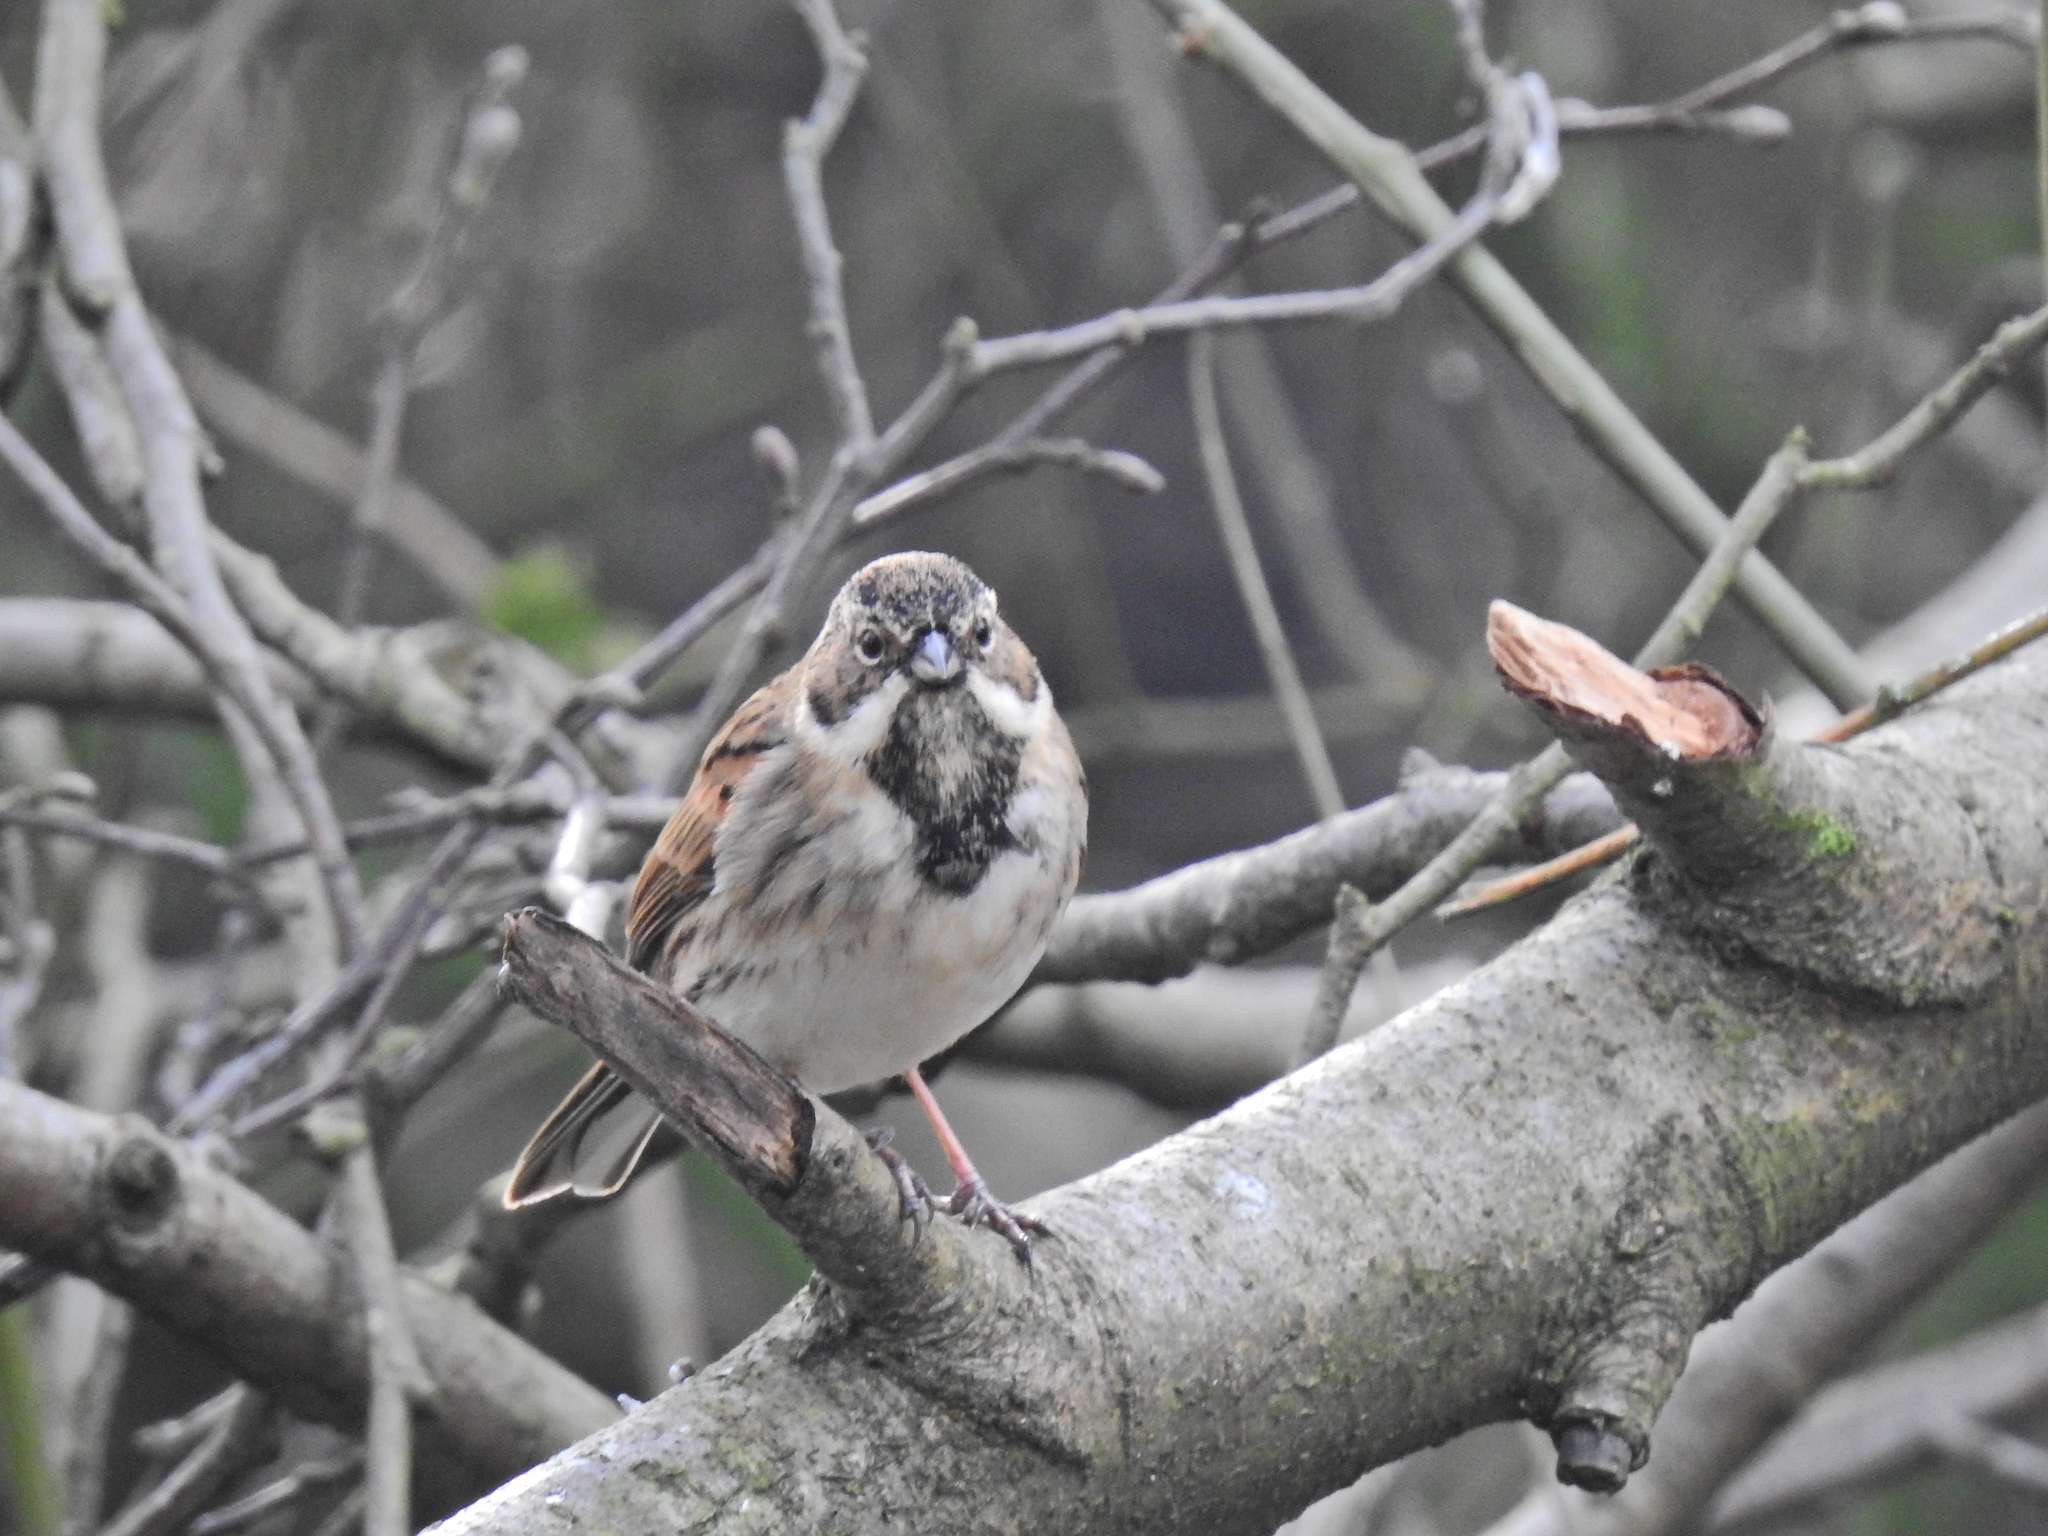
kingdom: Animalia
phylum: Chordata
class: Aves
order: Passeriformes
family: Emberizidae
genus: Emberiza
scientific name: Emberiza schoeniclus
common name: Reed bunting
